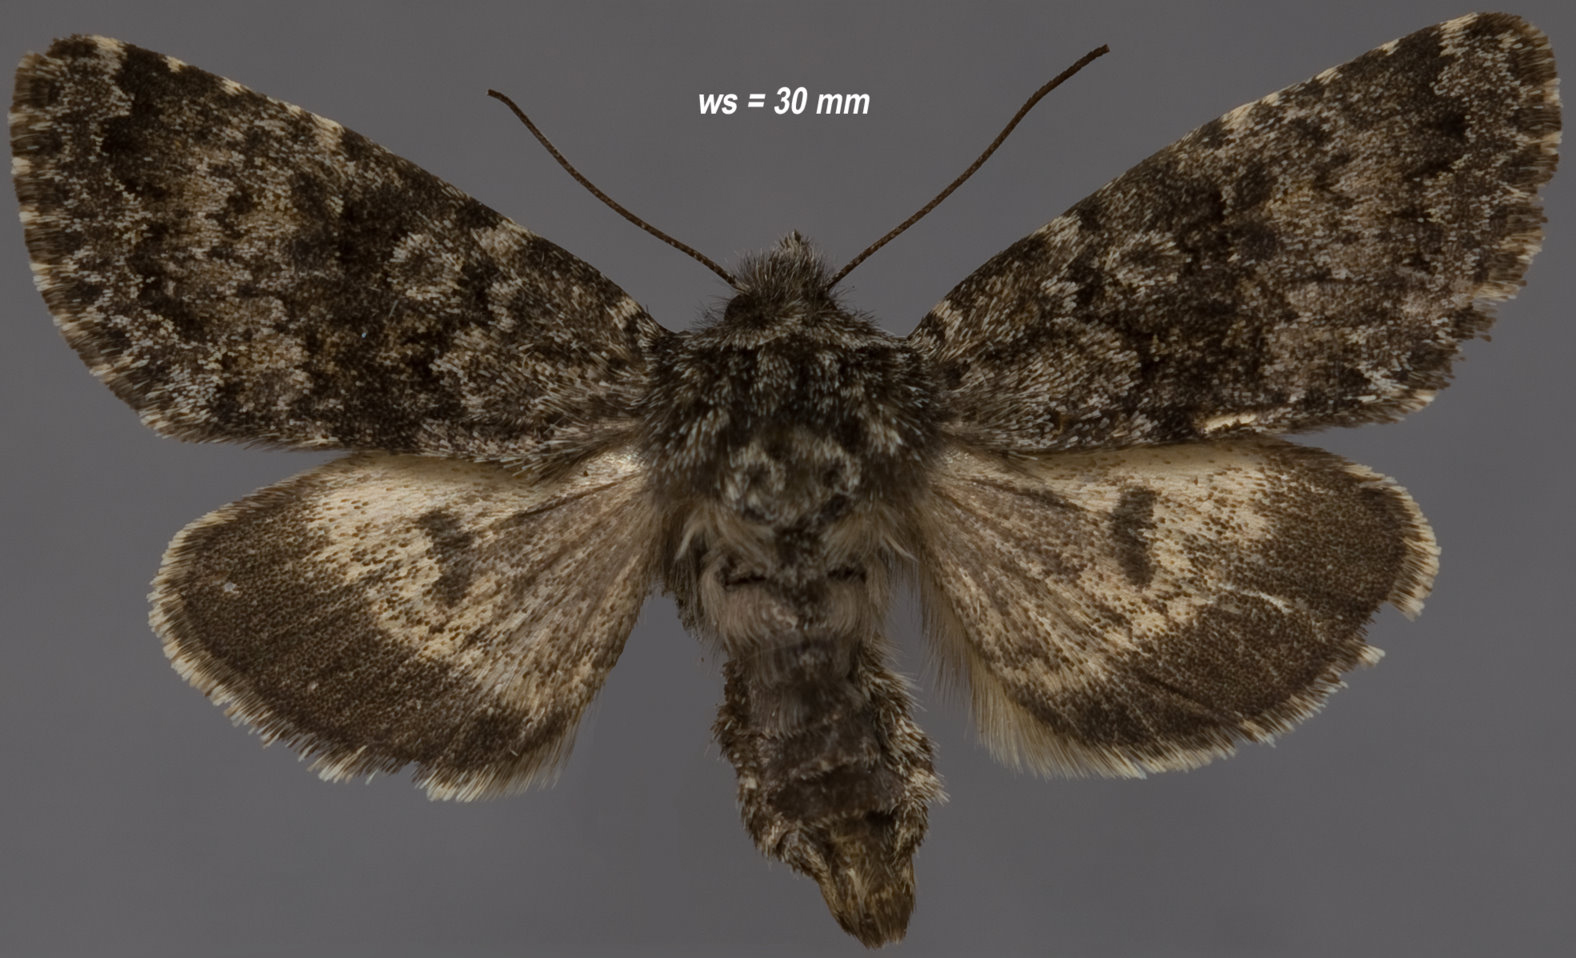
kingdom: Animalia
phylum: Arthropoda
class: Insecta
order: Lepidoptera
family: Noctuidae
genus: Lasionycta
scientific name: Lasionycta poca
